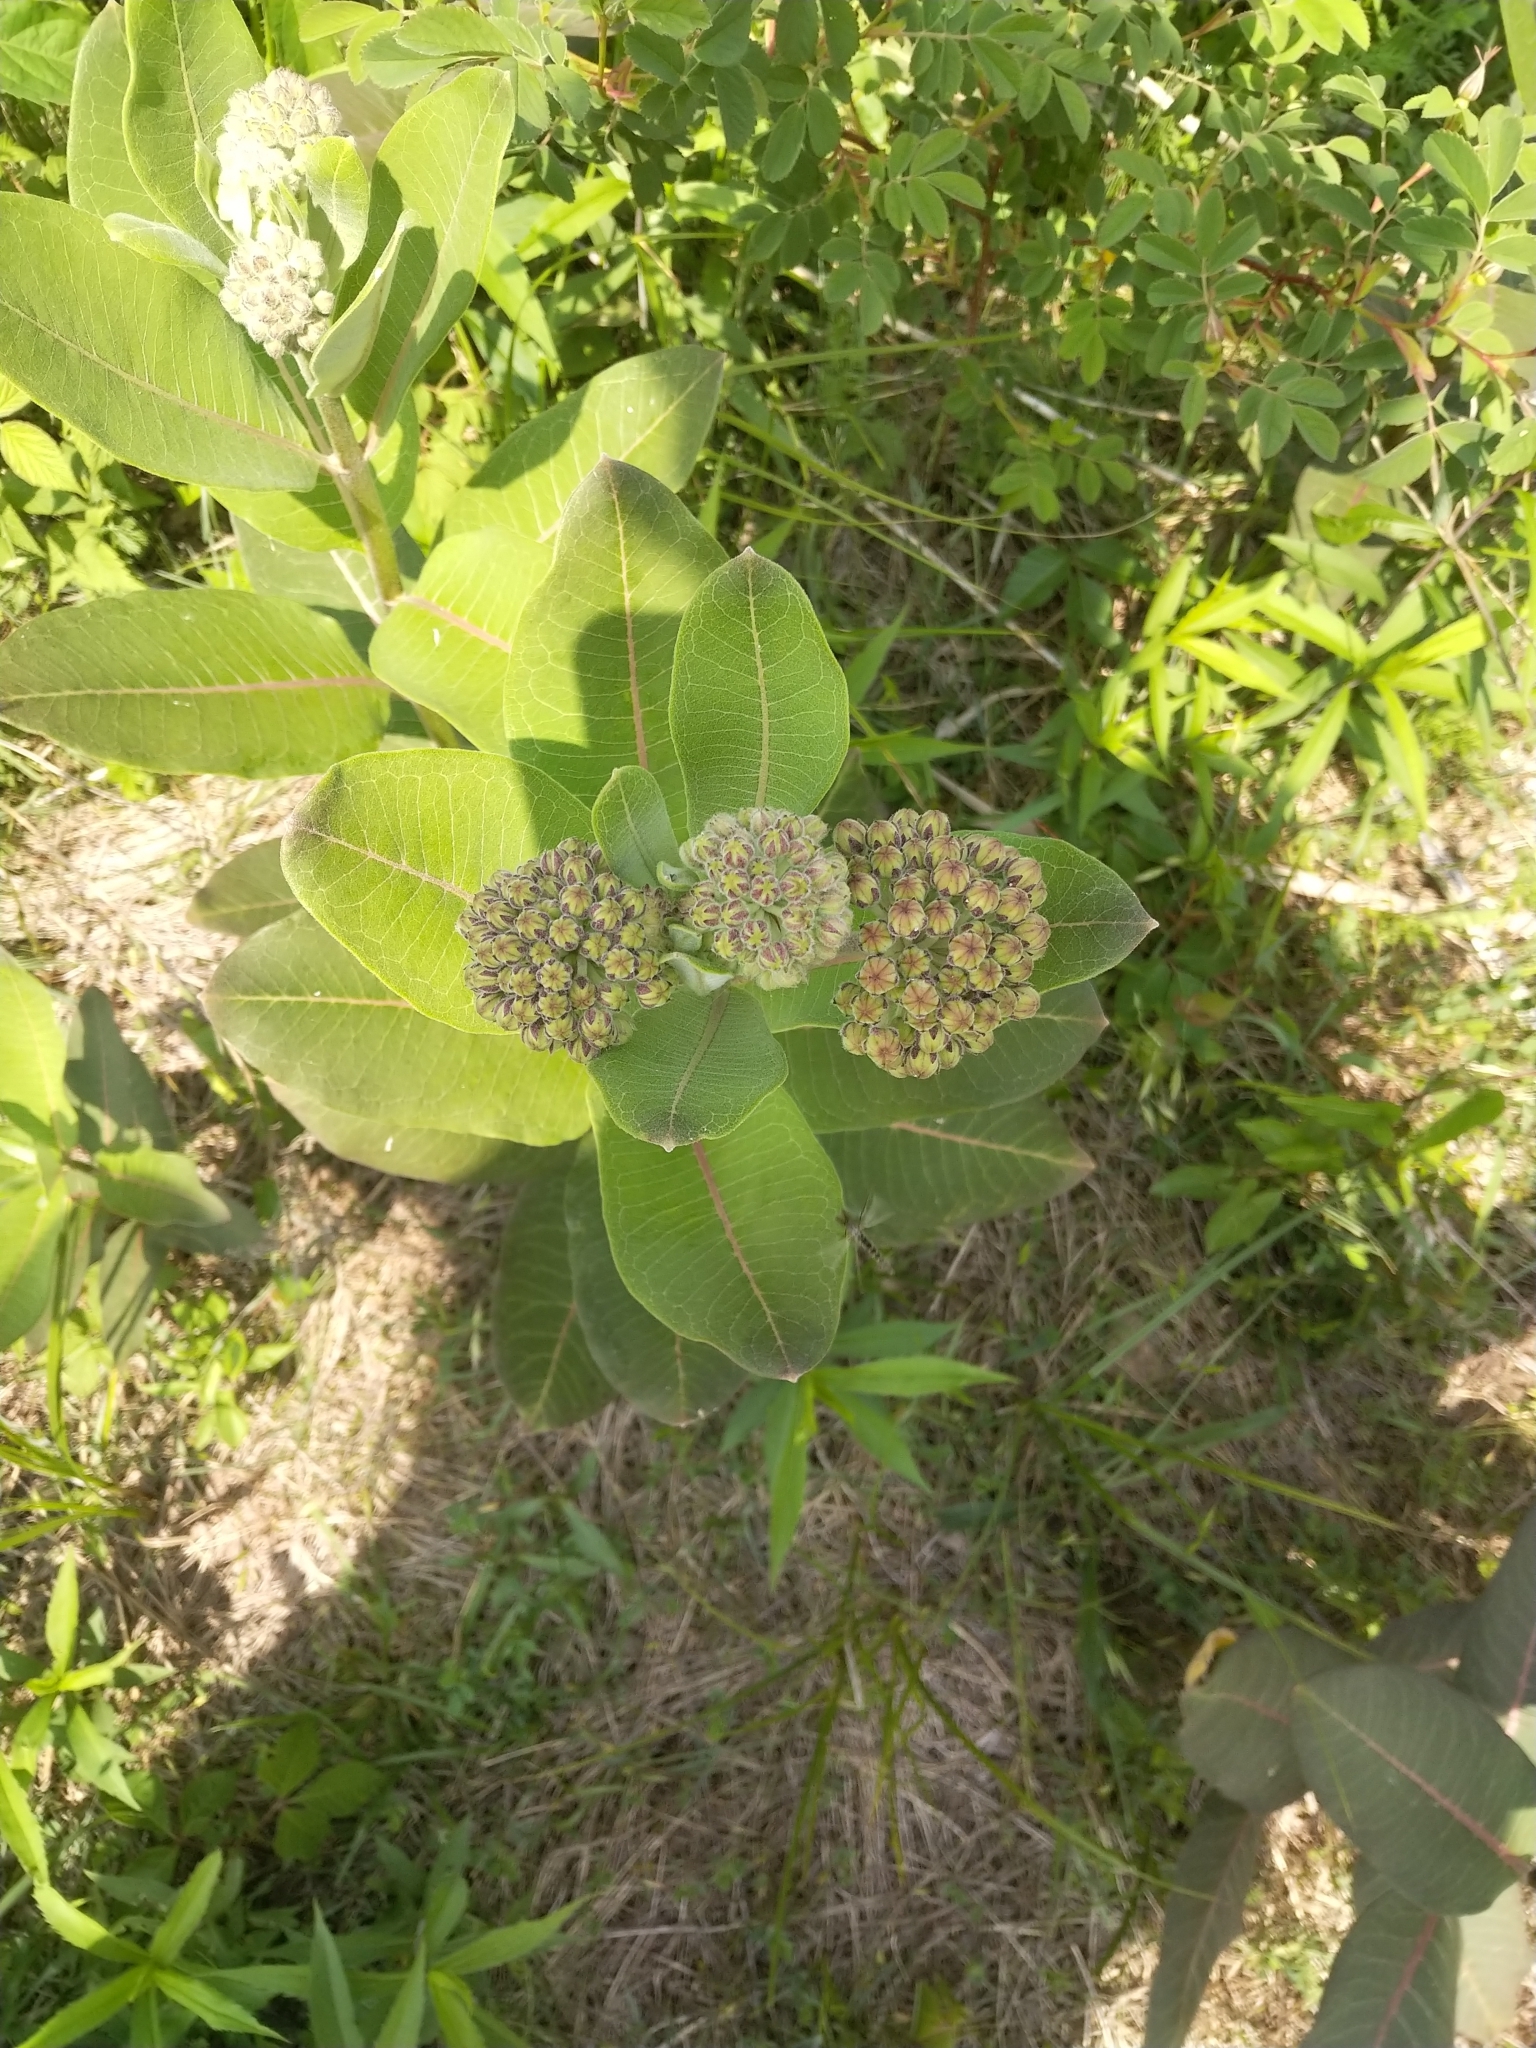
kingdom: Plantae
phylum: Tracheophyta
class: Magnoliopsida
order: Gentianales
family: Apocynaceae
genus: Asclepias
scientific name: Asclepias syriaca
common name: Common milkweed
